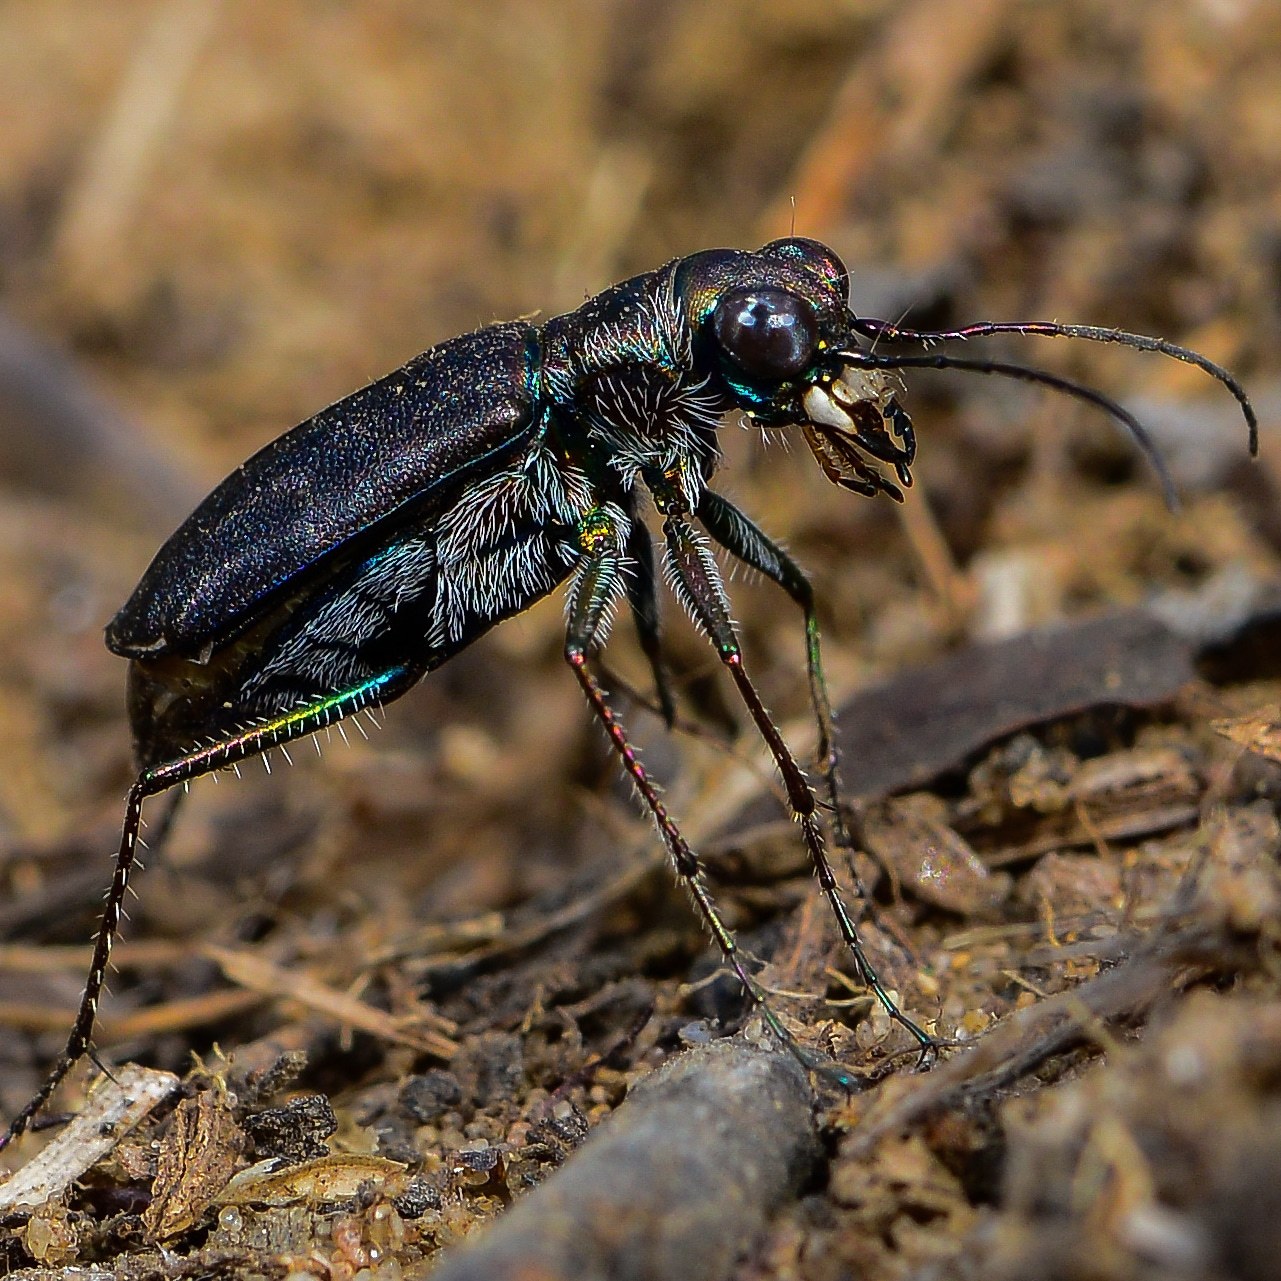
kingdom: Animalia
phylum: Arthropoda
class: Insecta
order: Coleoptera
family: Carabidae
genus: Cicindela
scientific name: Cicindela punctulata
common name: Punctured tiger beetle
